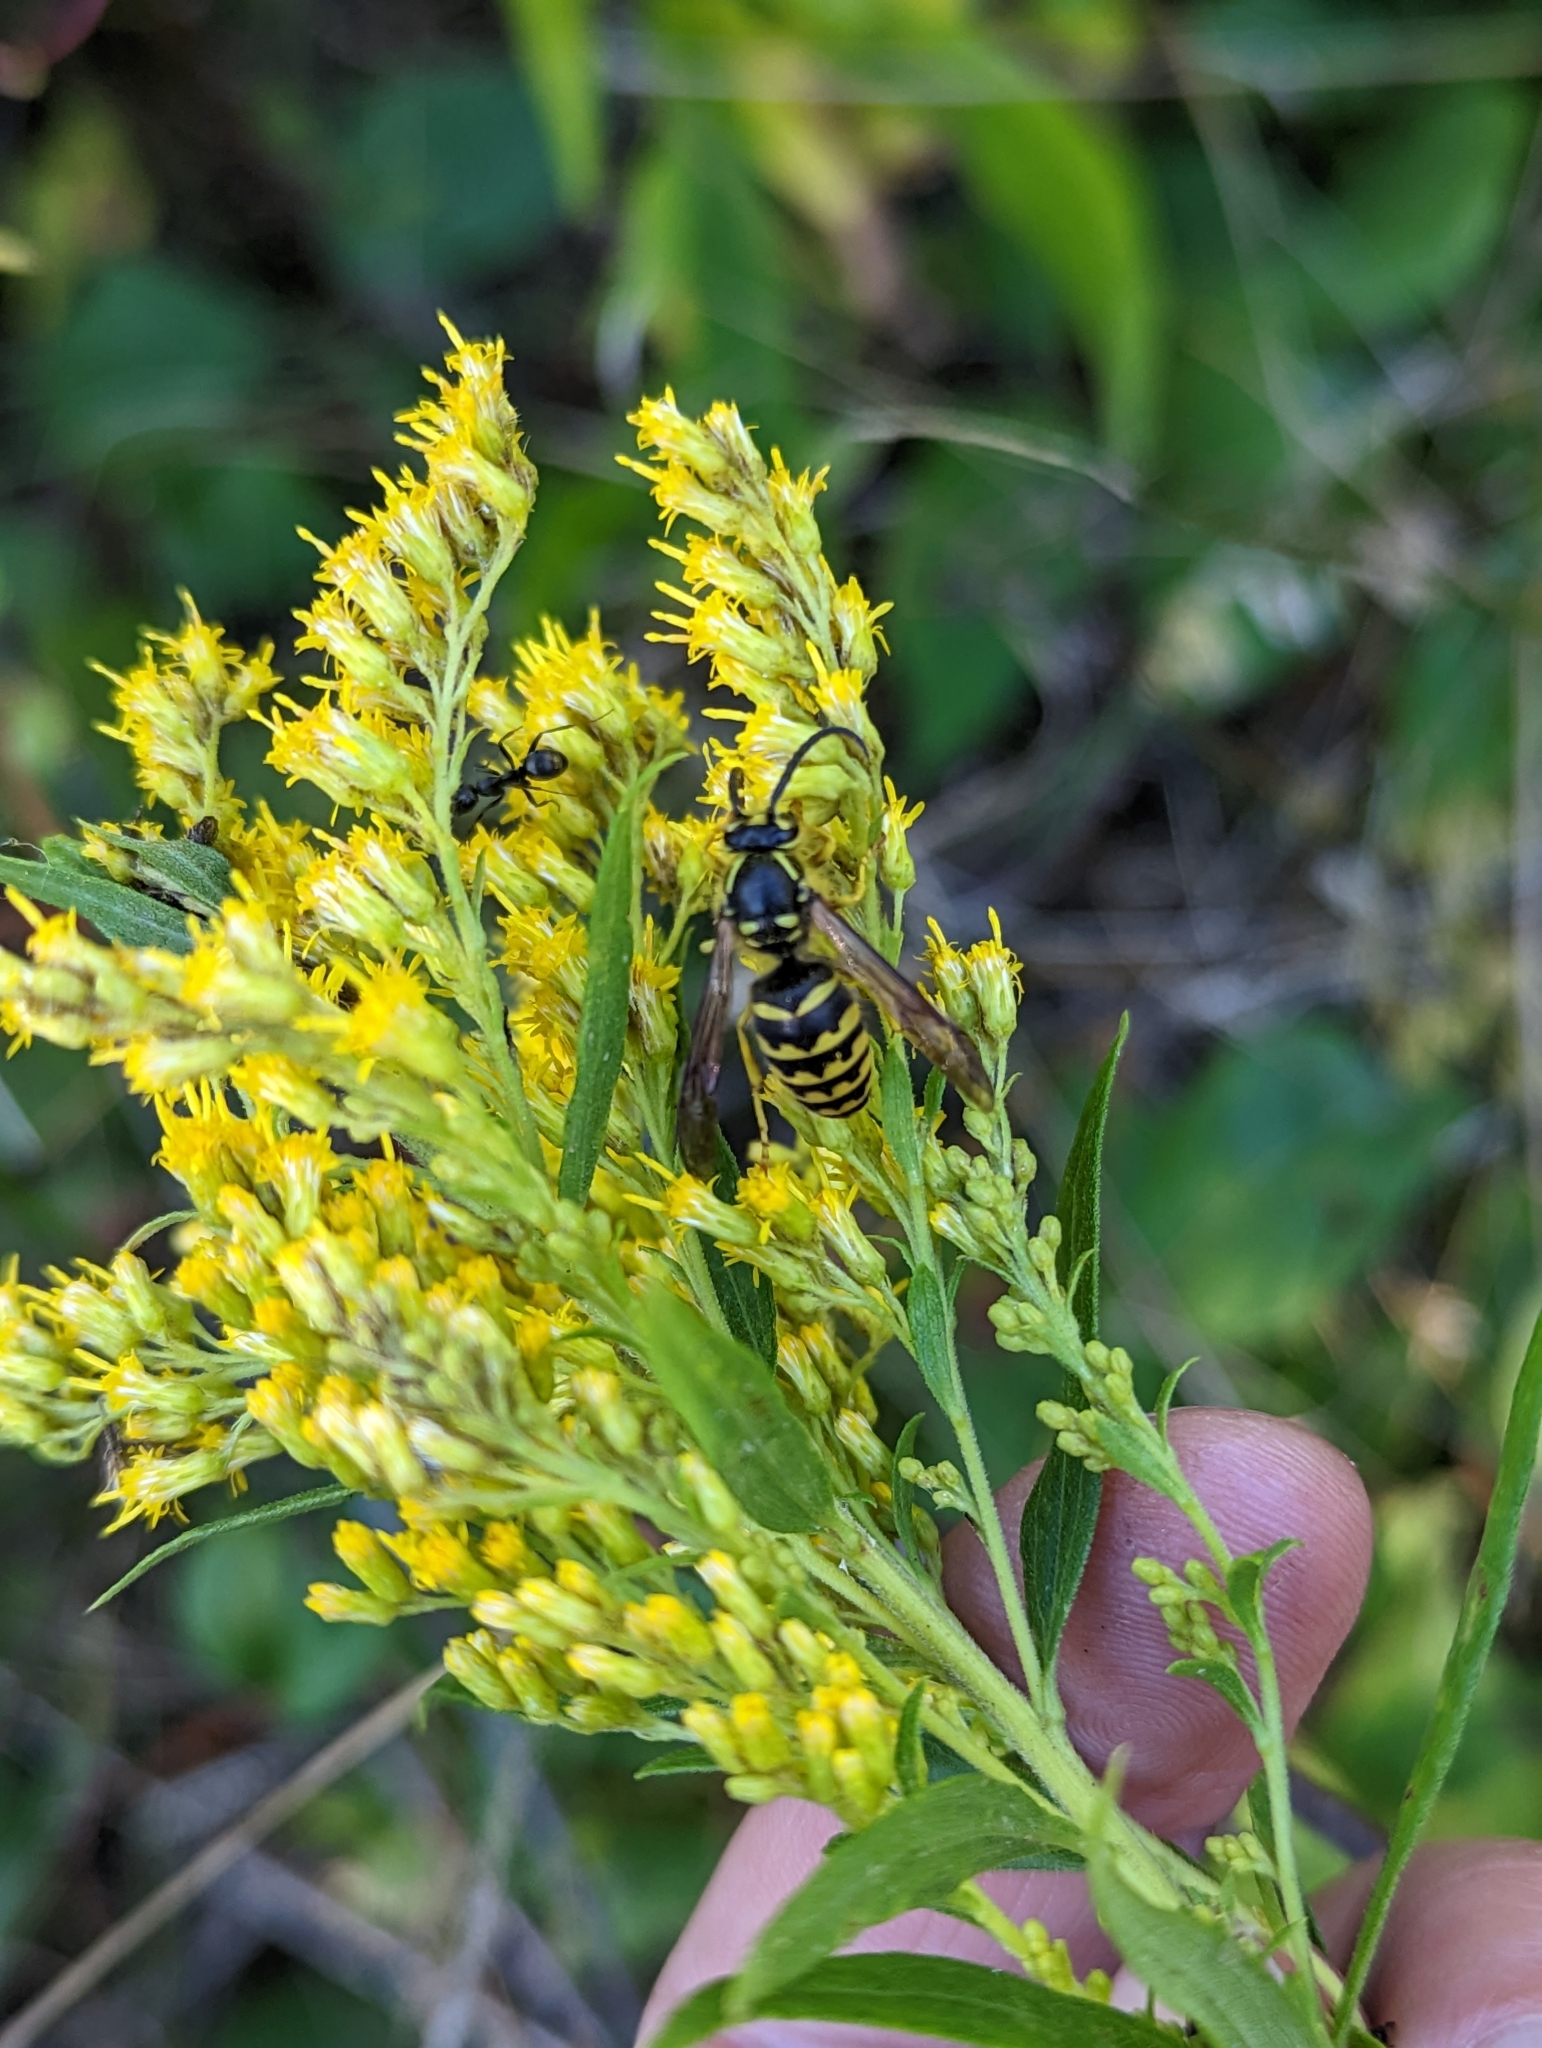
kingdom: Animalia
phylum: Arthropoda
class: Insecta
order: Hymenoptera
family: Vespidae
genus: Dolichovespula
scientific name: Dolichovespula arenaria
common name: Aerial yellowjacket
